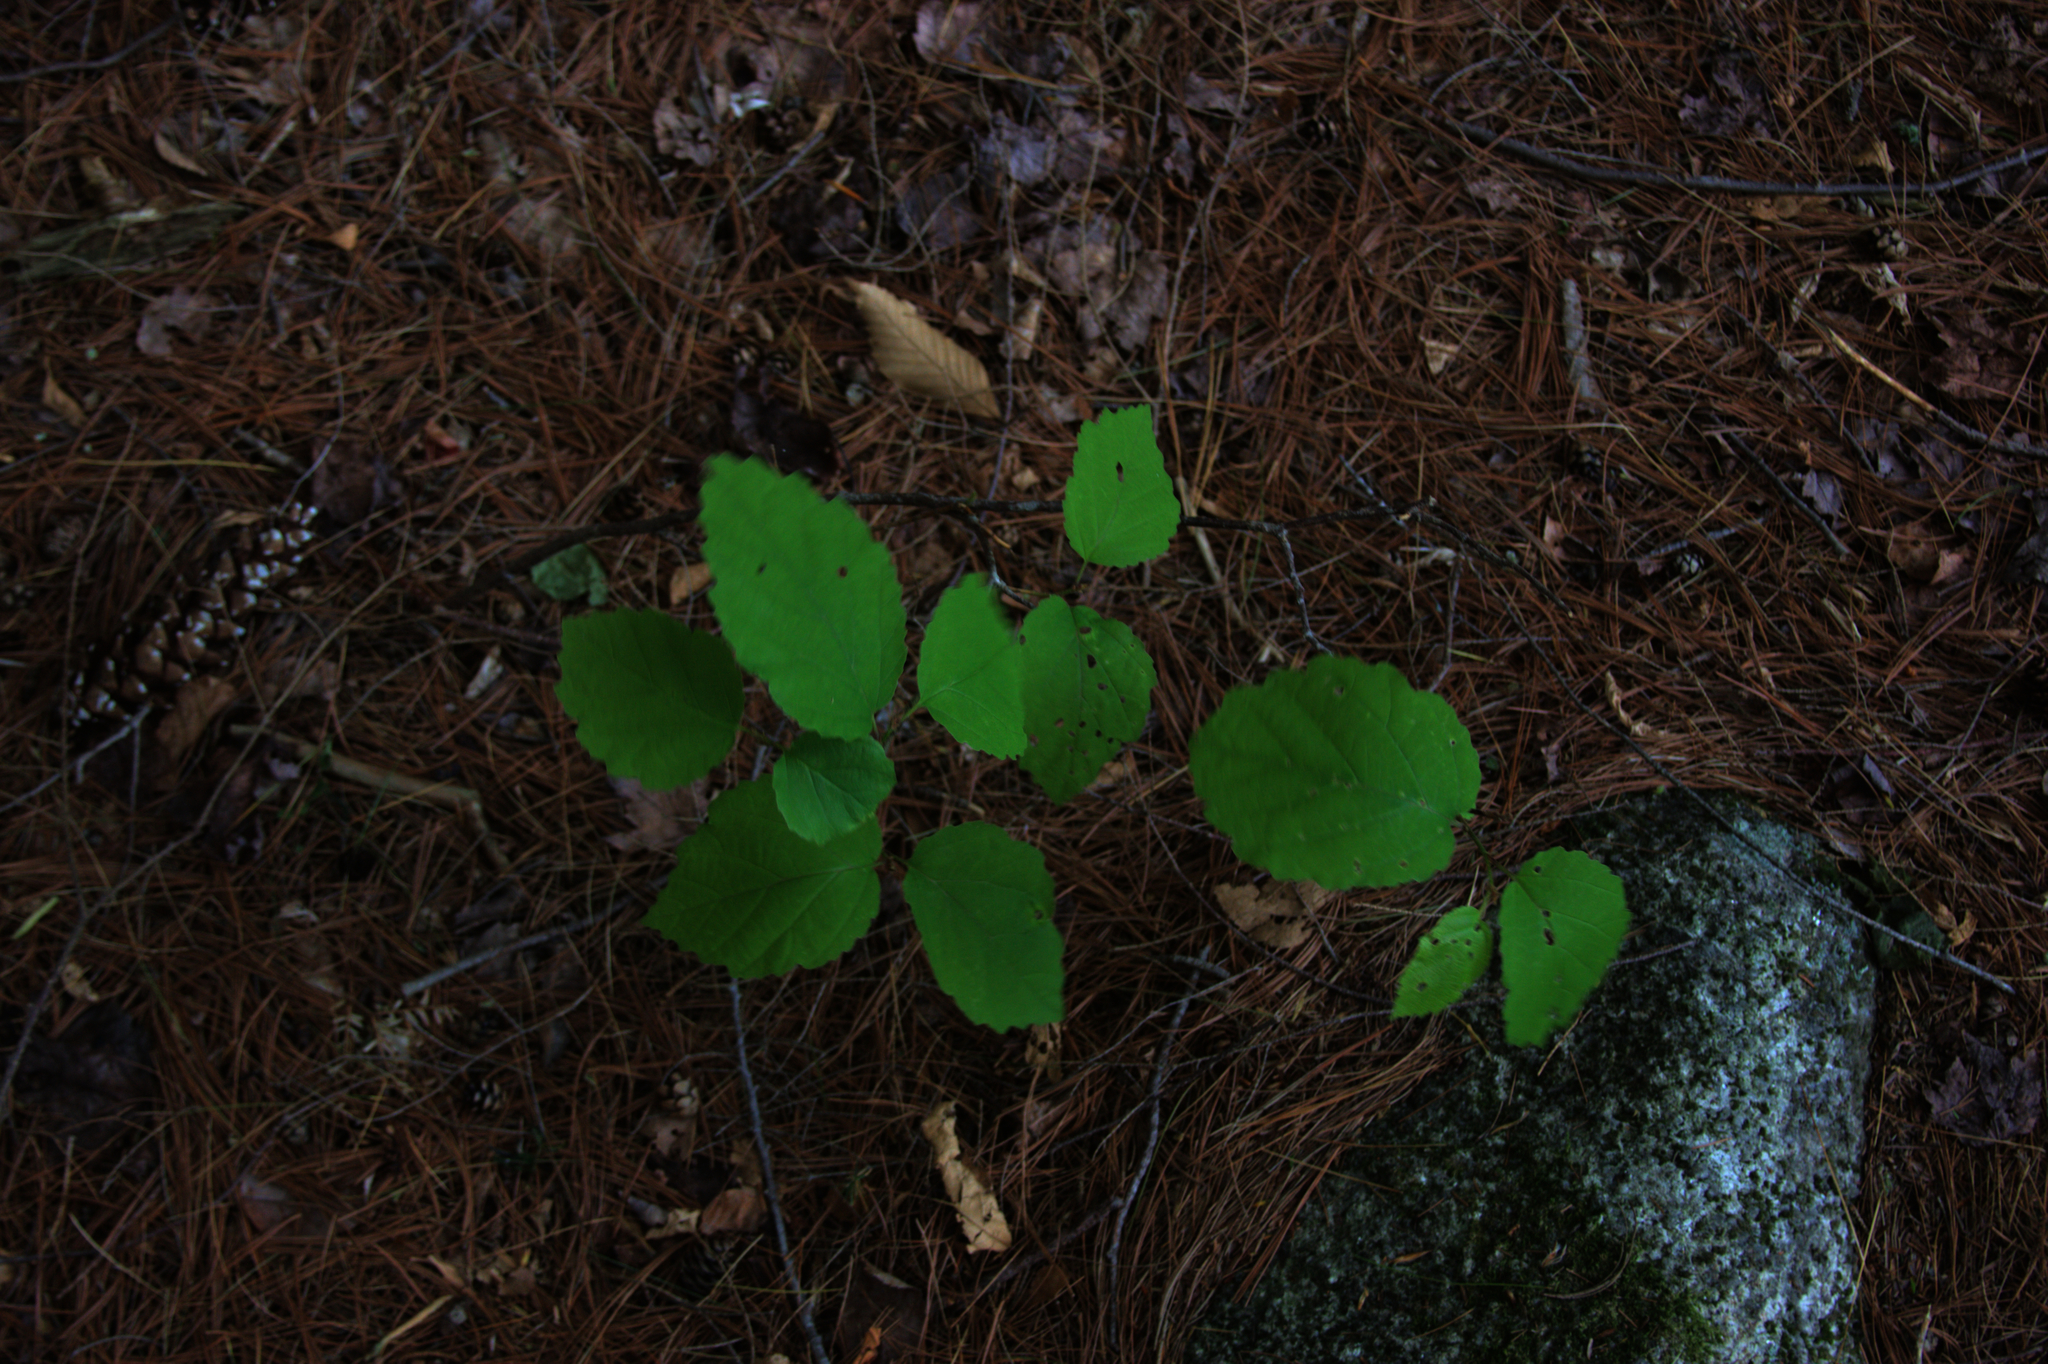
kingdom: Plantae
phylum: Tracheophyta
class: Magnoliopsida
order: Saxifragales
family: Hamamelidaceae
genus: Hamamelis
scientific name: Hamamelis virginiana
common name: Witch-hazel
